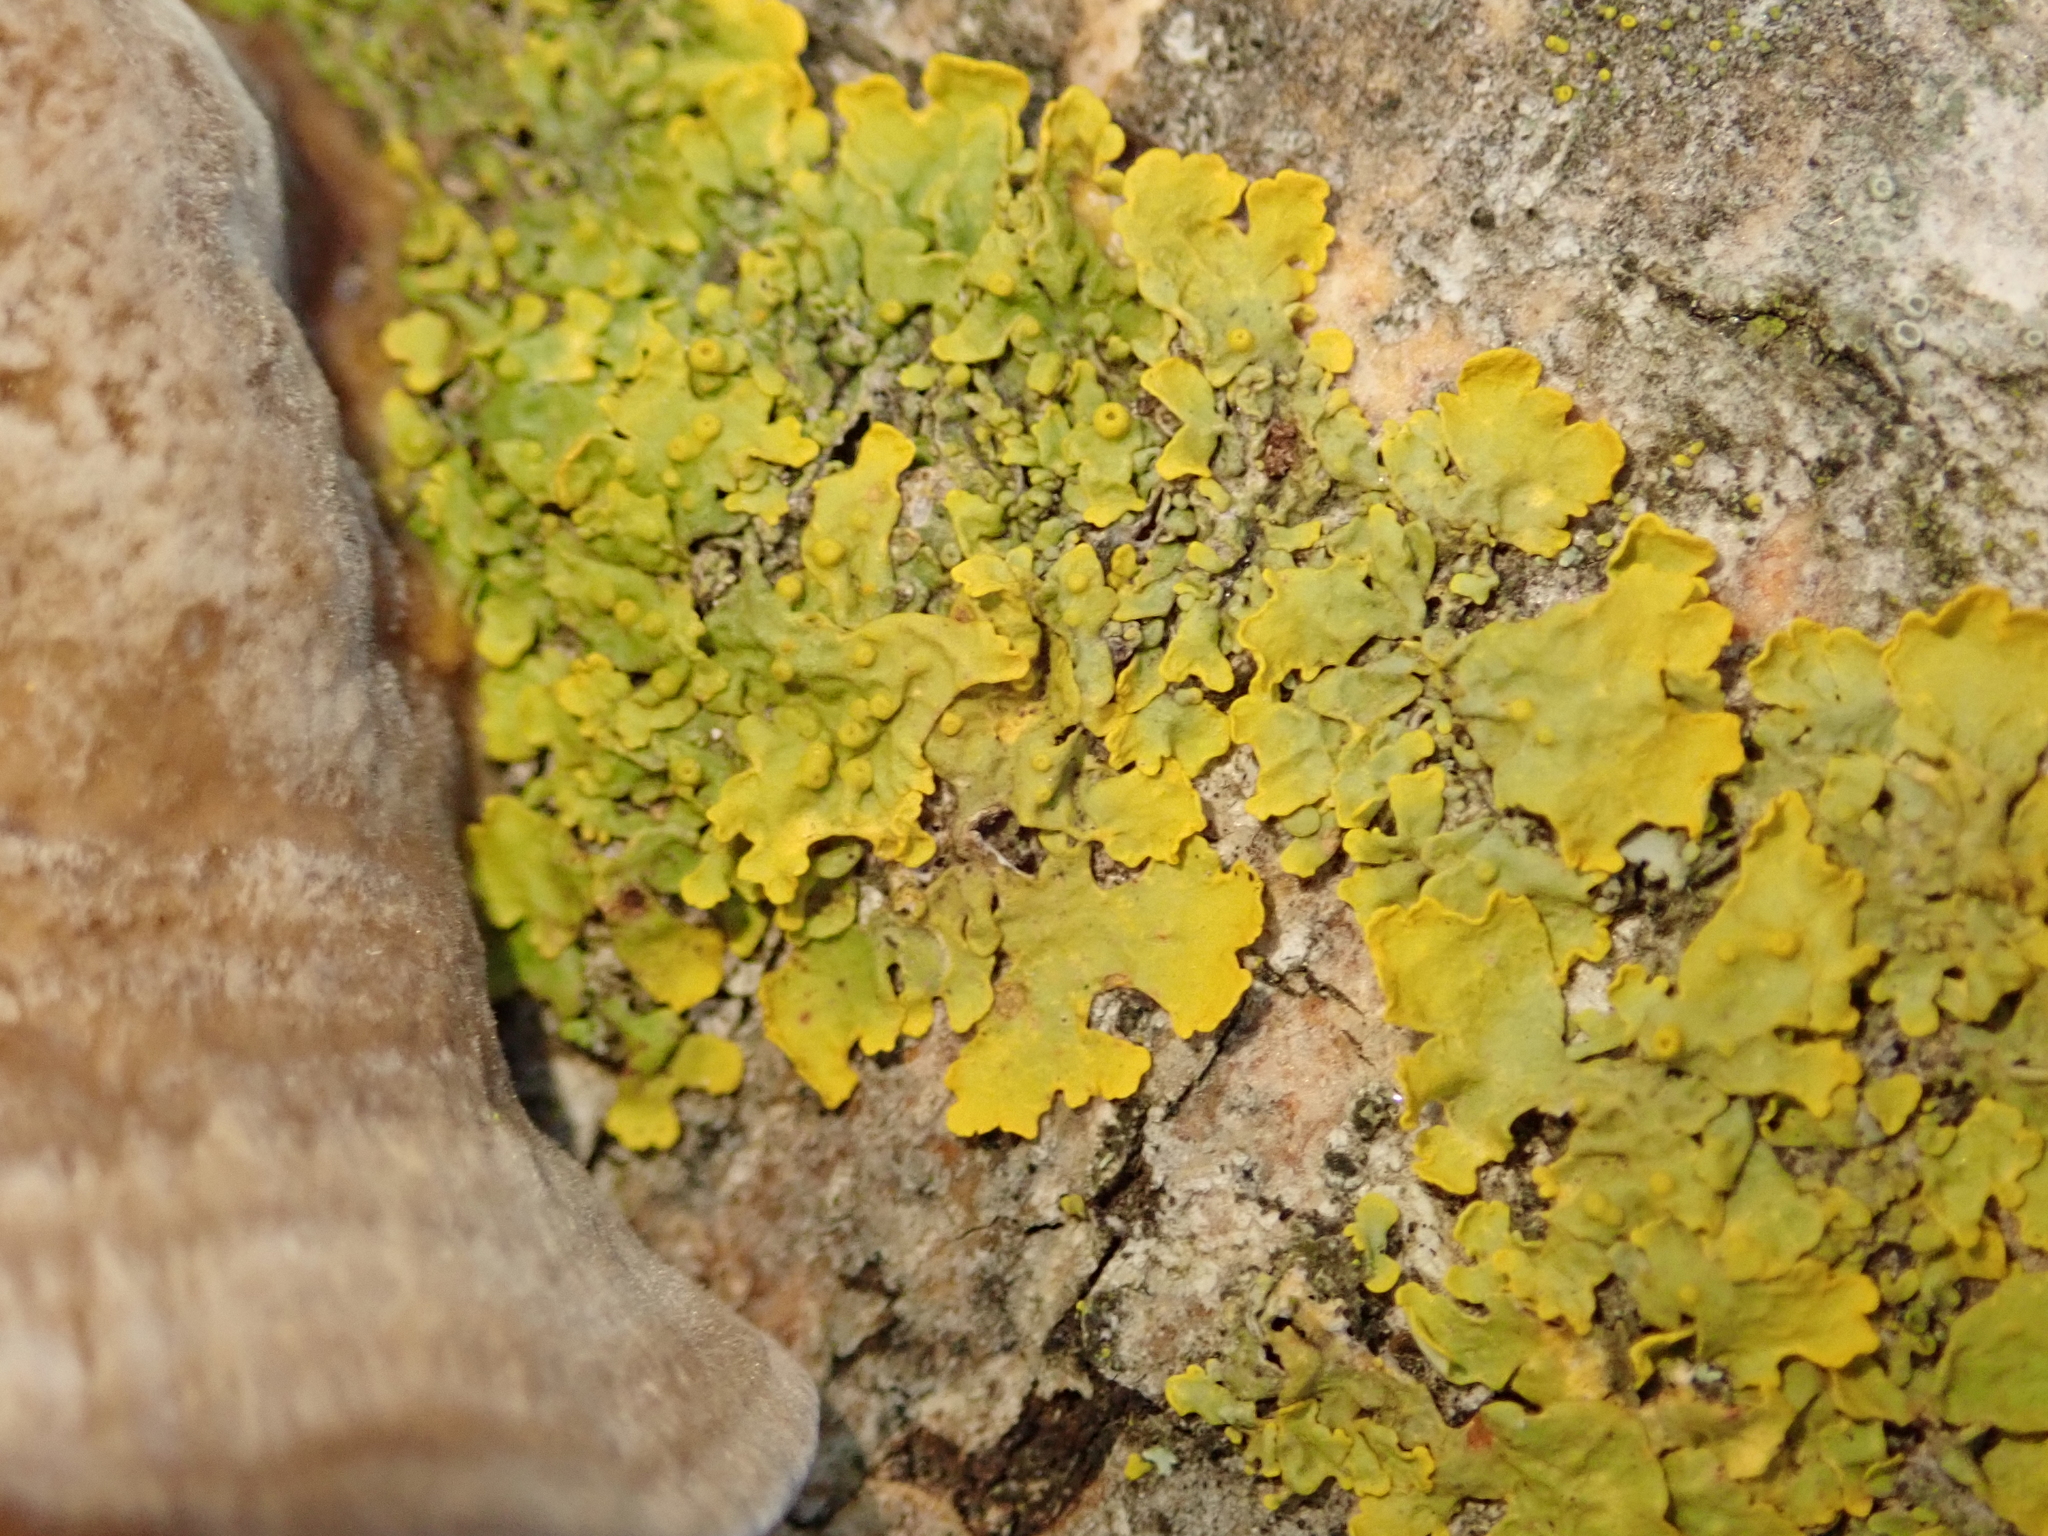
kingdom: Fungi
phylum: Ascomycota
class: Lecanoromycetes
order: Teloschistales
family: Teloschistaceae
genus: Xanthoria
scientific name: Xanthoria parietina
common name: Common orange lichen
